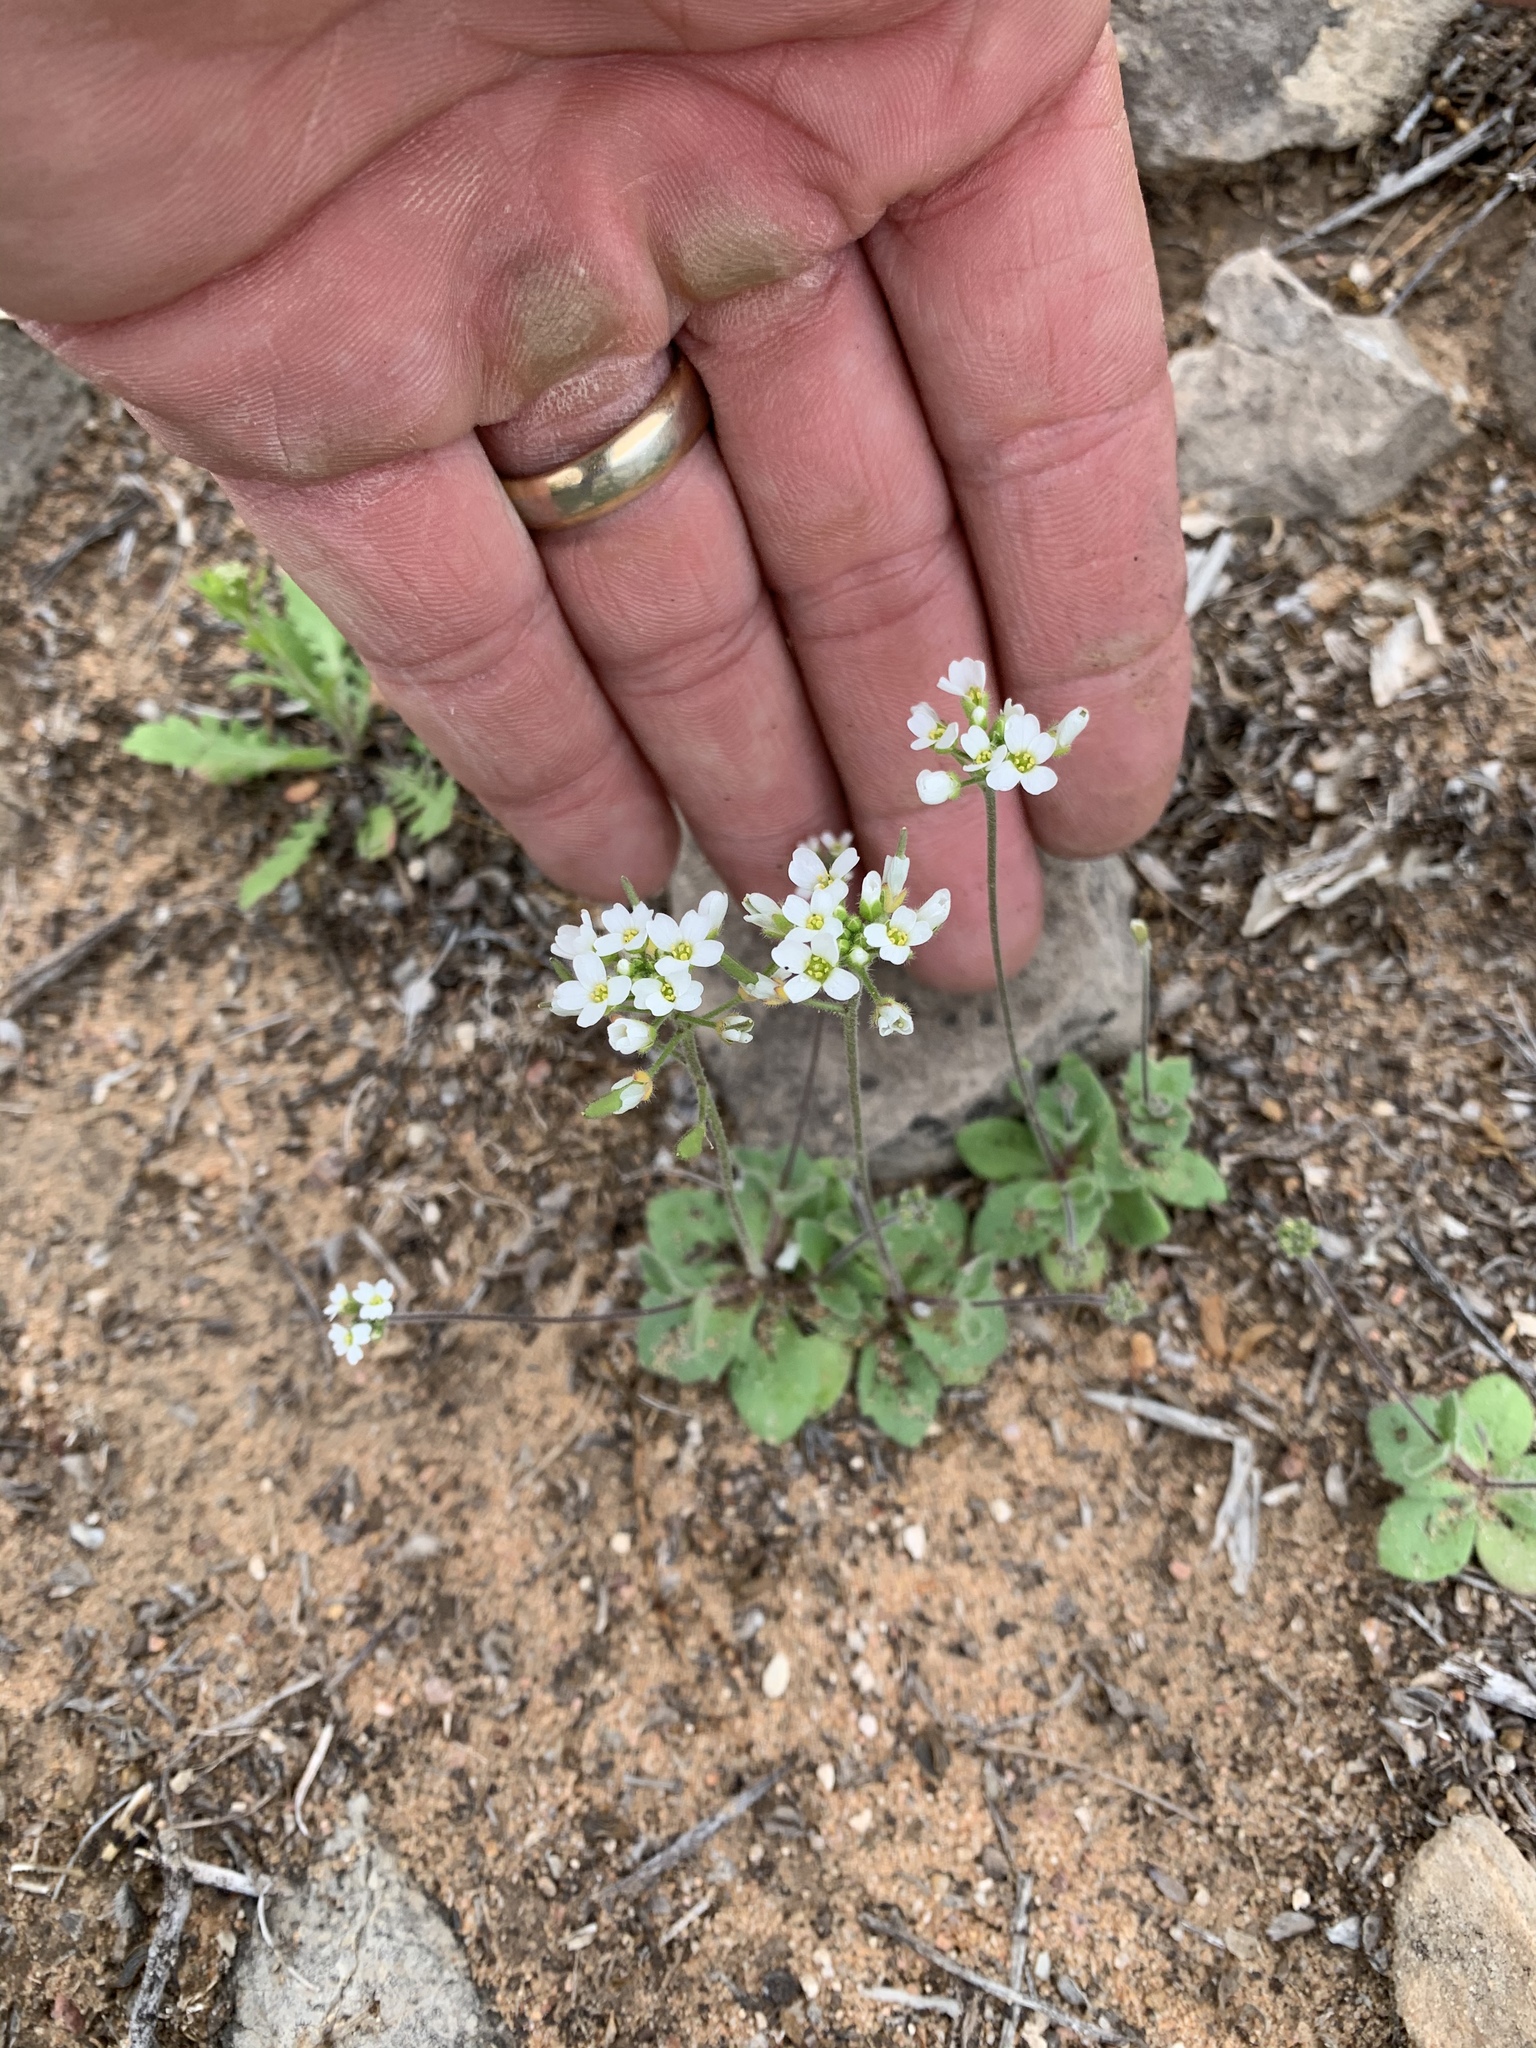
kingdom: Plantae
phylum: Tracheophyta
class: Magnoliopsida
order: Brassicales
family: Brassicaceae
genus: Tomostima
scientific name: Tomostima cuneifolia
